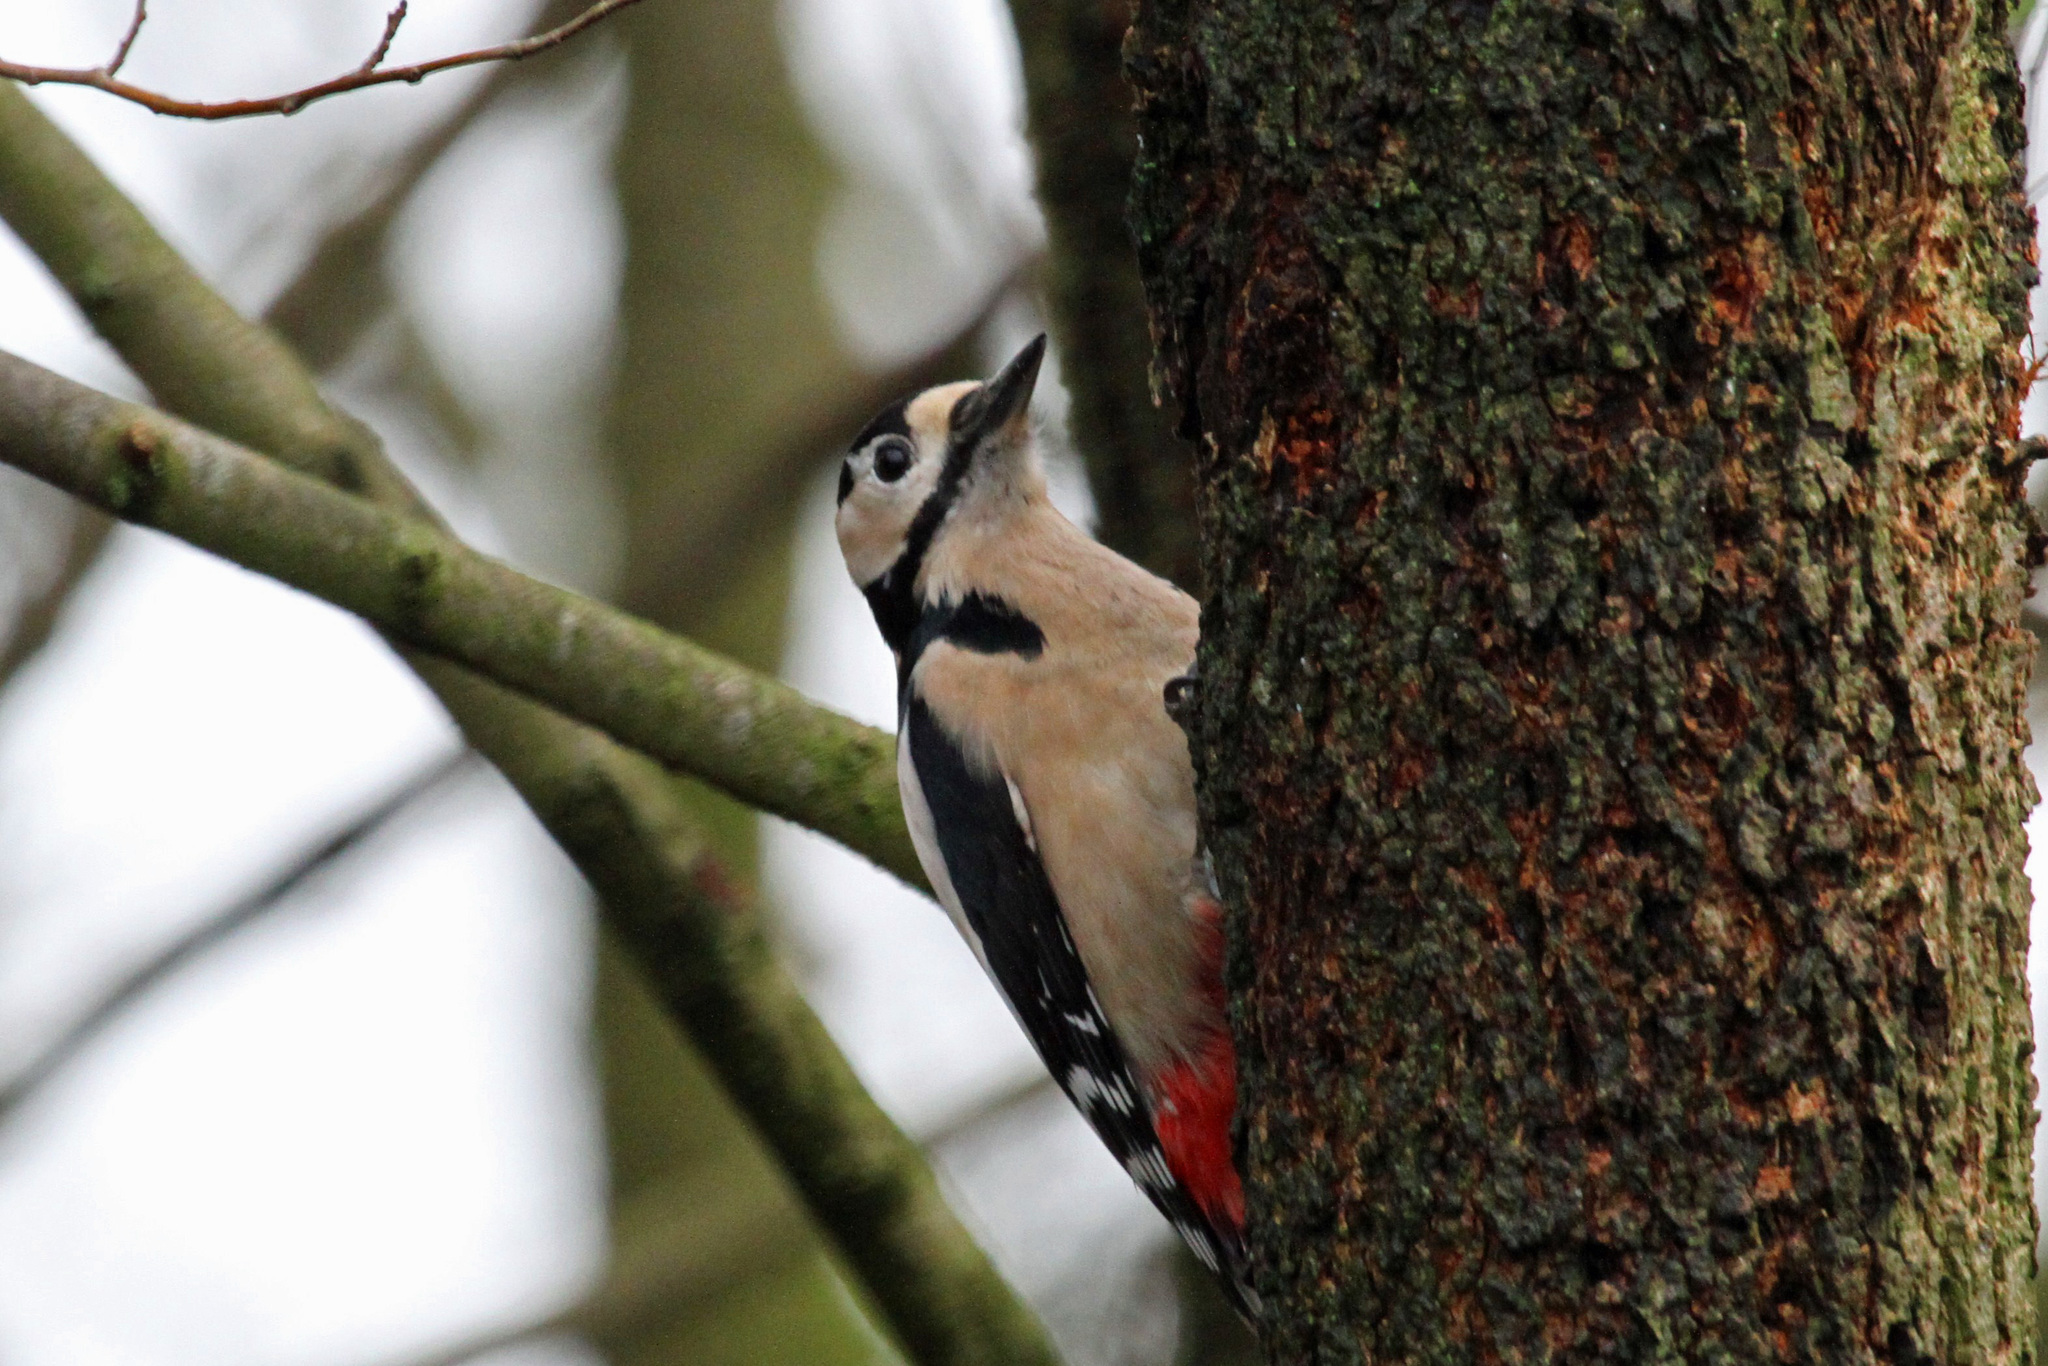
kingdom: Animalia
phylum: Chordata
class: Aves
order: Piciformes
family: Picidae
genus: Dendrocopos
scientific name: Dendrocopos major
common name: Great spotted woodpecker
